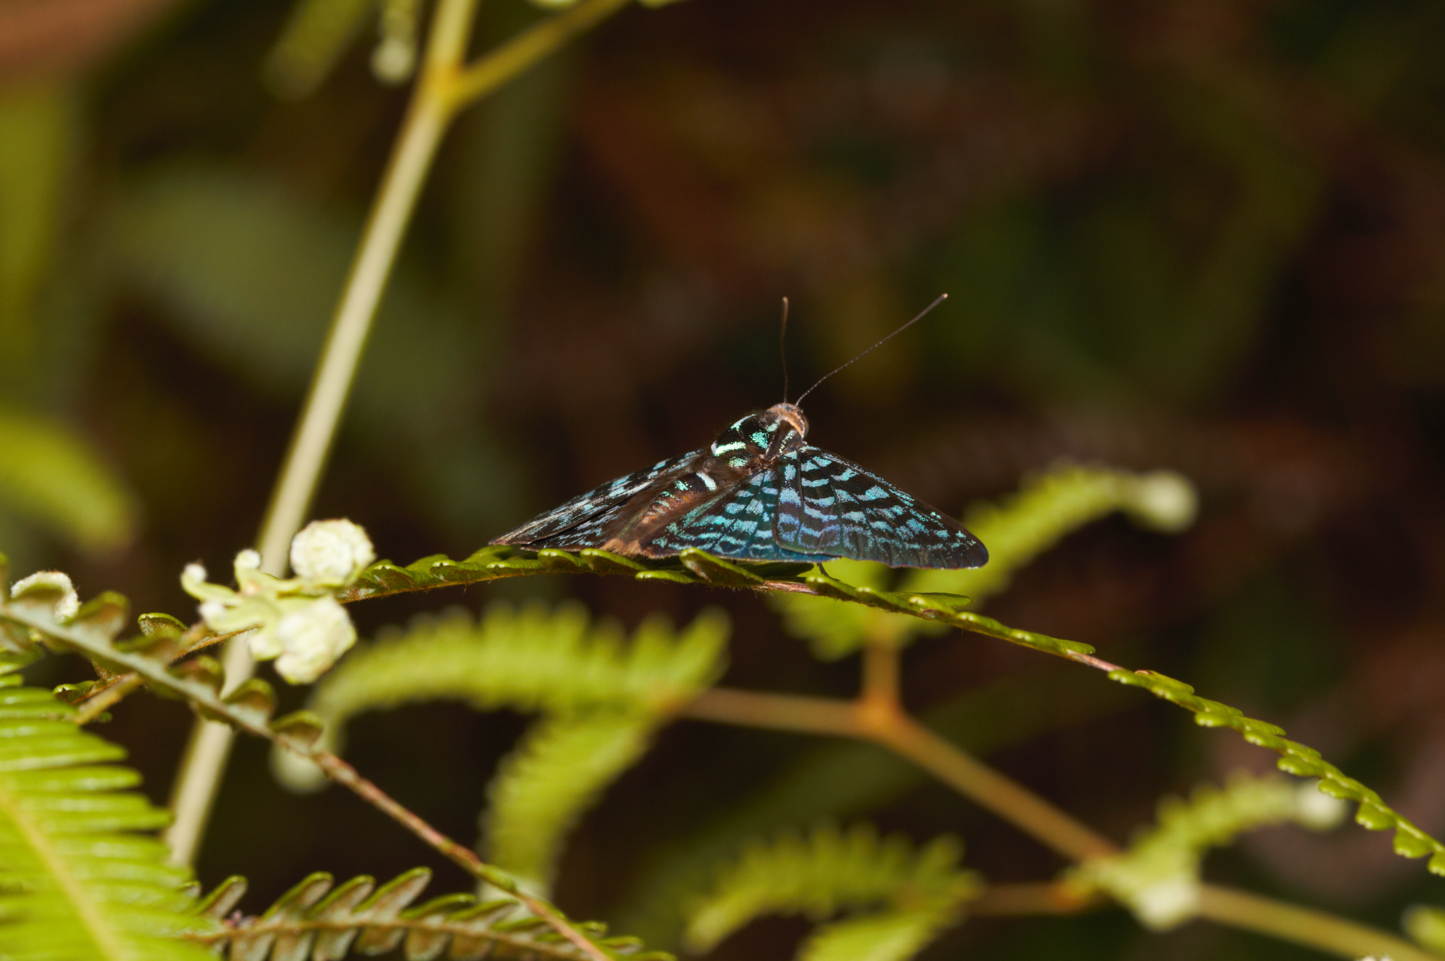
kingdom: Animalia
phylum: Arthropoda
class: Insecta
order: Lepidoptera
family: Riodinidae
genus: Periplacis
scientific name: Periplacis pretus
